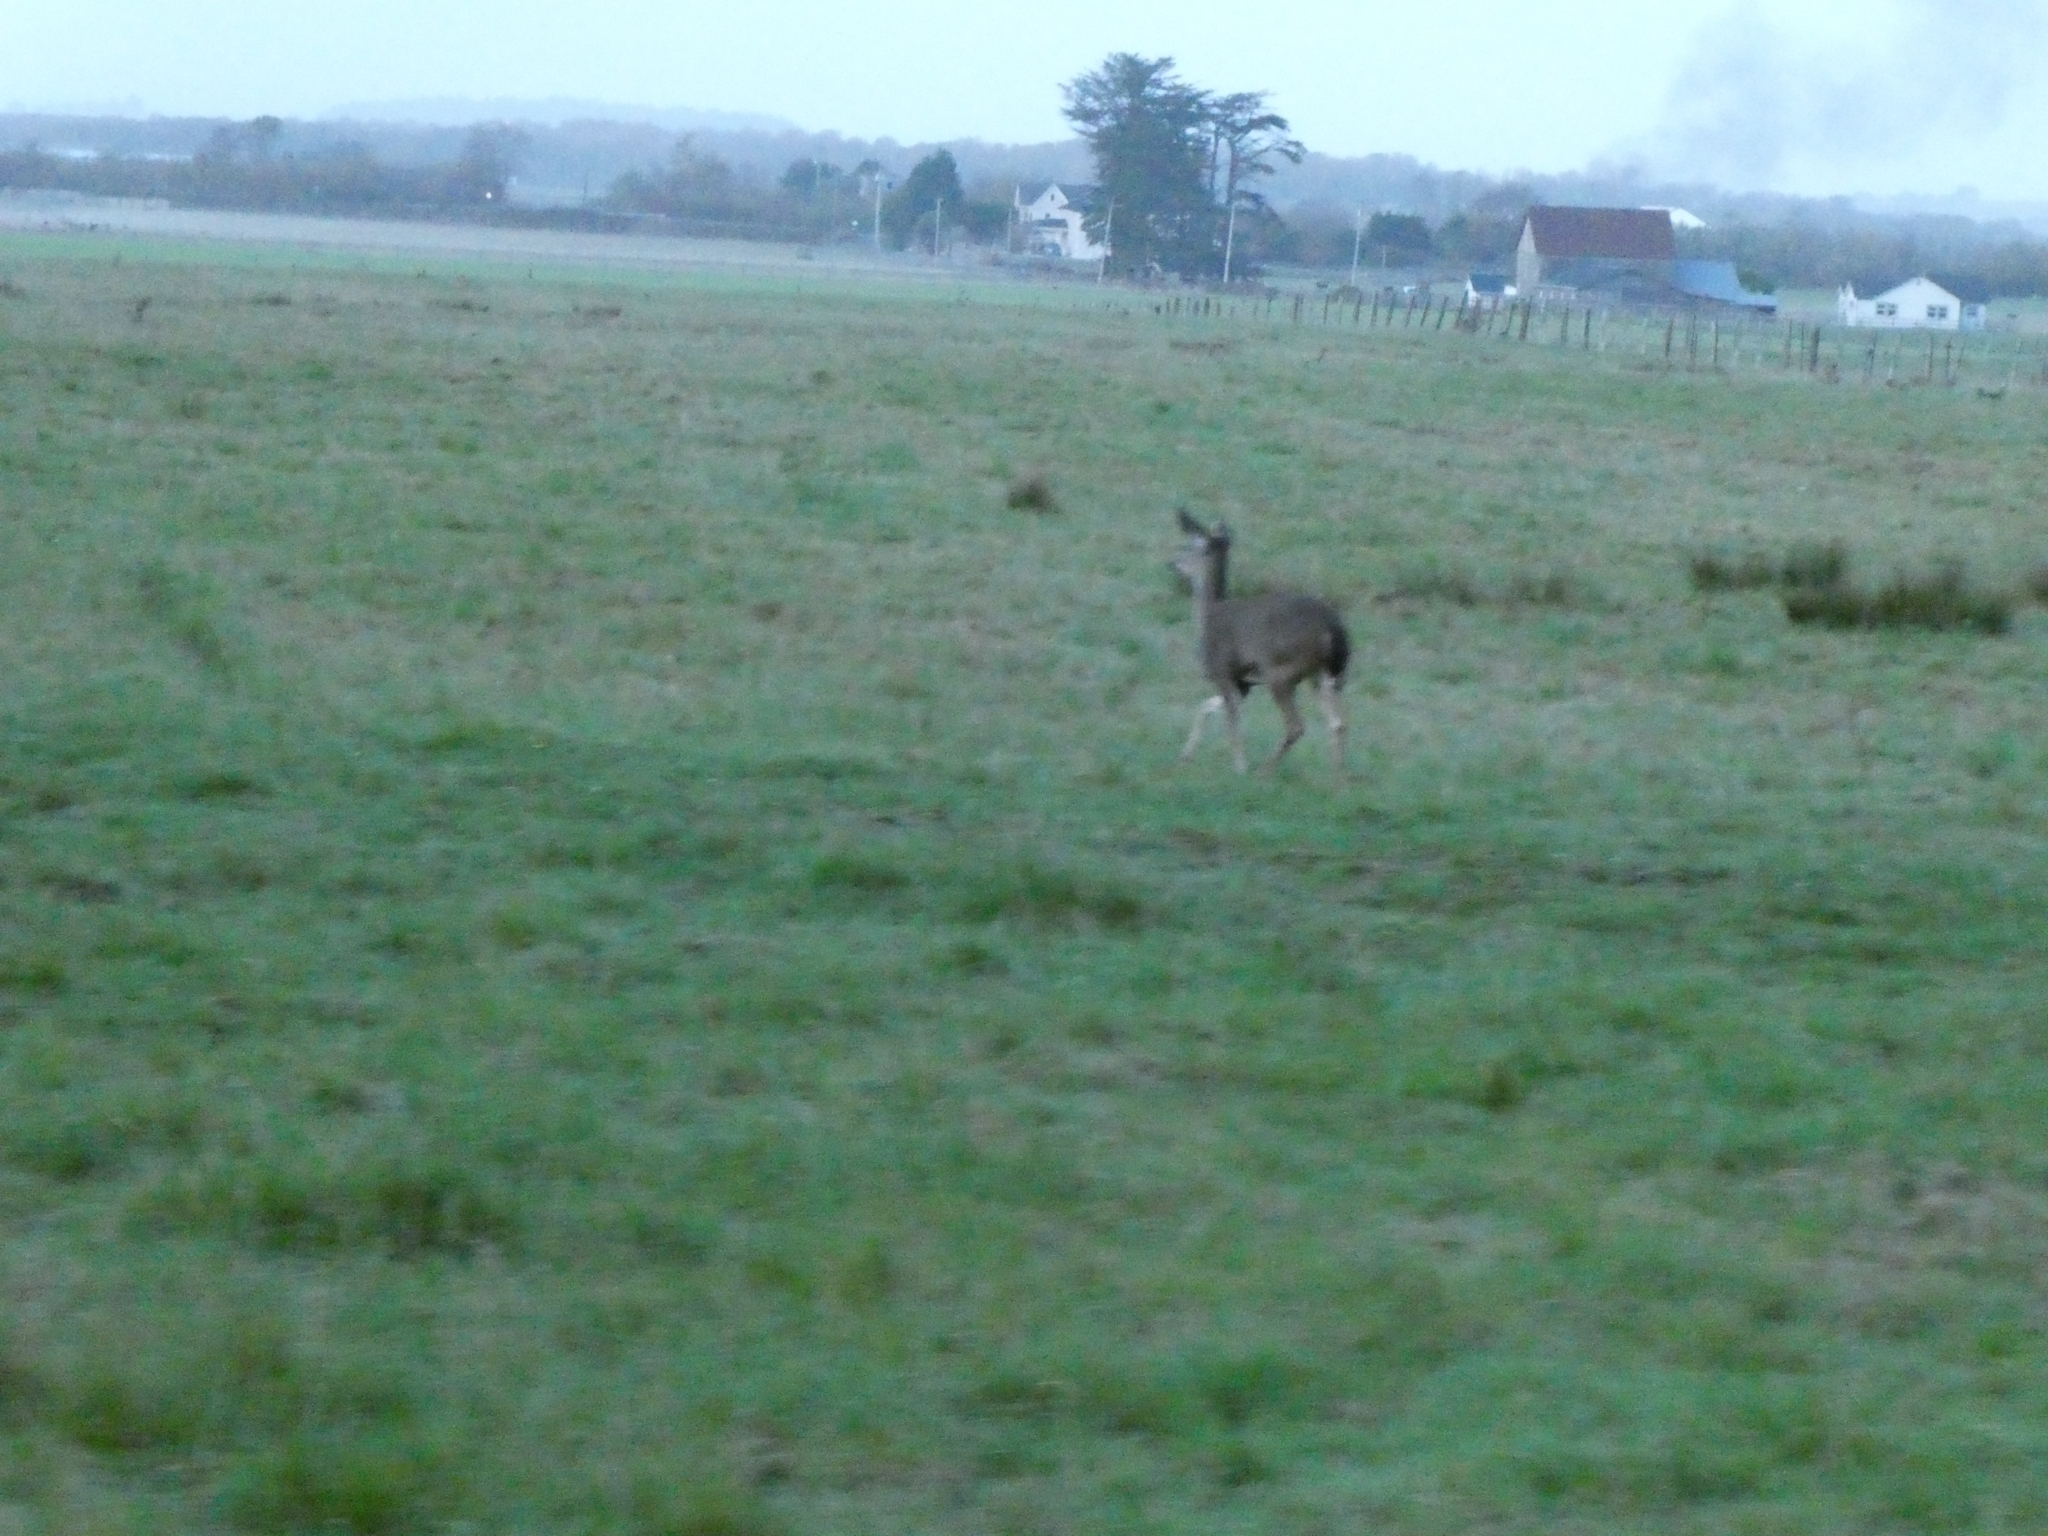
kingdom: Animalia
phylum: Chordata
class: Mammalia
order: Artiodactyla
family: Cervidae
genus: Odocoileus
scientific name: Odocoileus hemionus
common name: Mule deer
